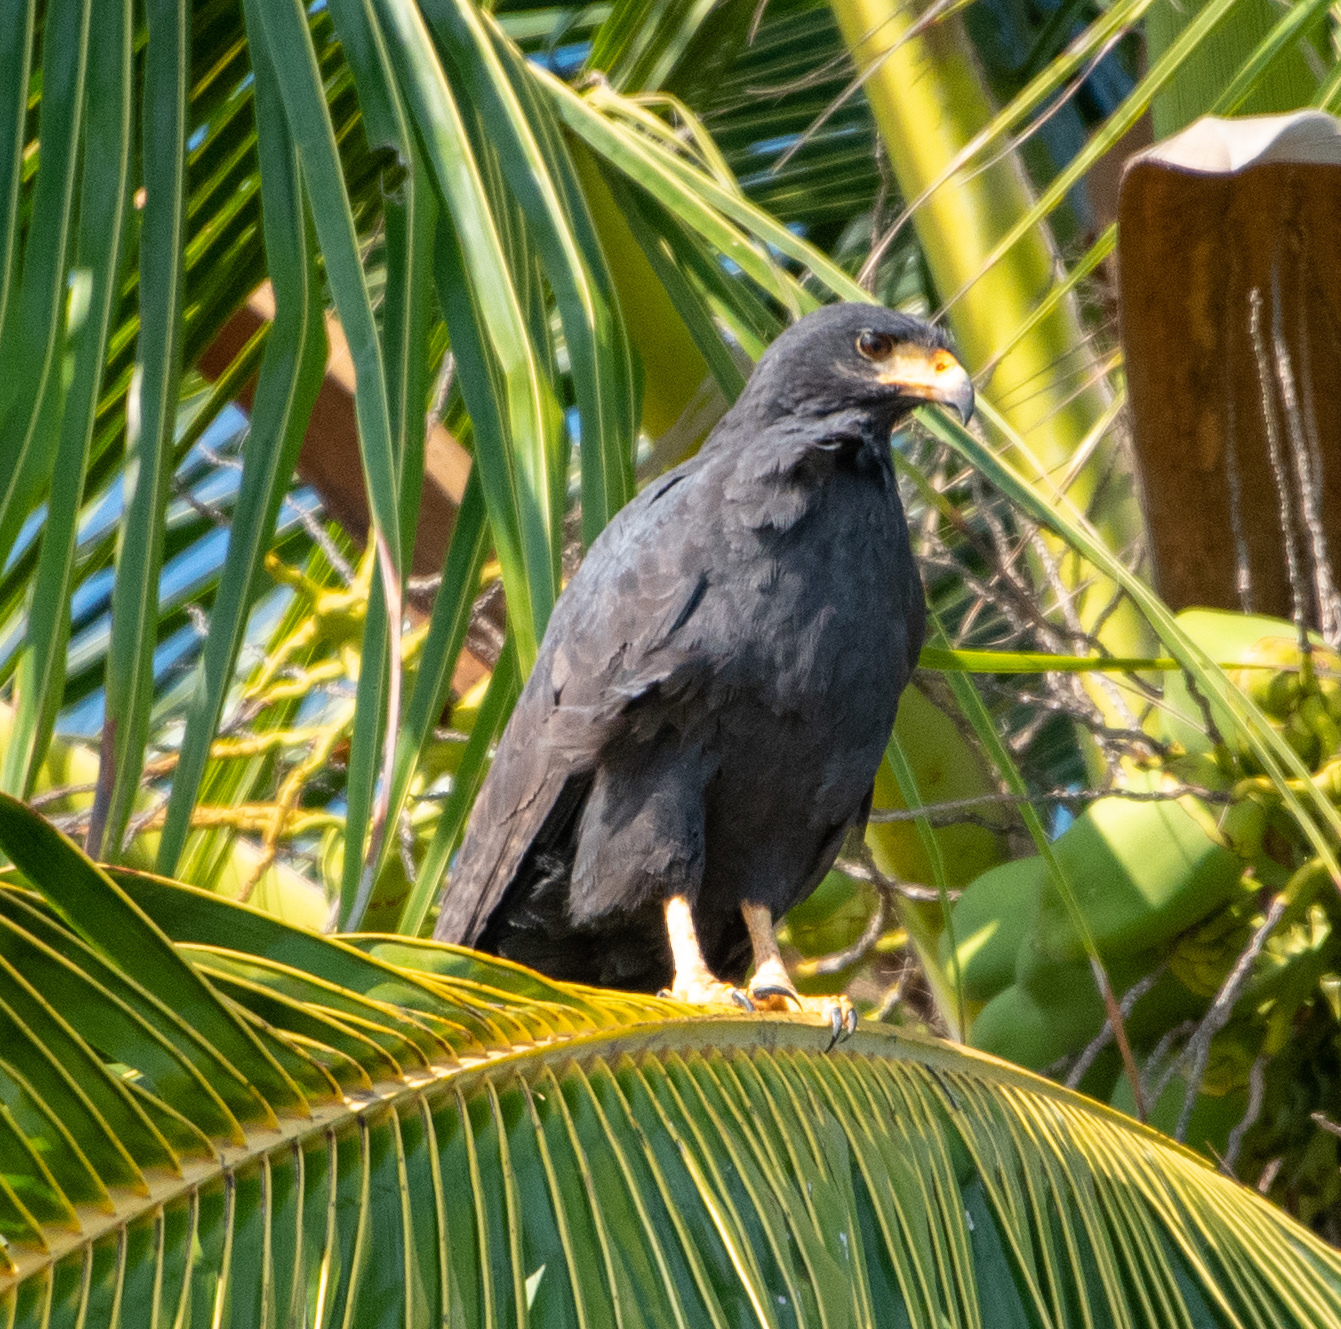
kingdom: Animalia
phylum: Chordata
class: Aves
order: Accipitriformes
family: Accipitridae
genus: Buteogallus
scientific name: Buteogallus anthracinus
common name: Common black hawk
